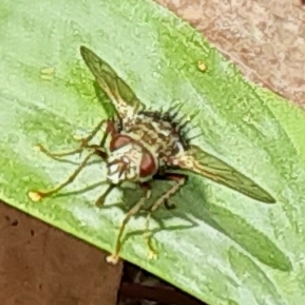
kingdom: Animalia
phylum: Arthropoda
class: Insecta
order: Diptera
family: Tachinidae
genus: Epalpus
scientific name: Epalpus signifer
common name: Early tachinid fly
